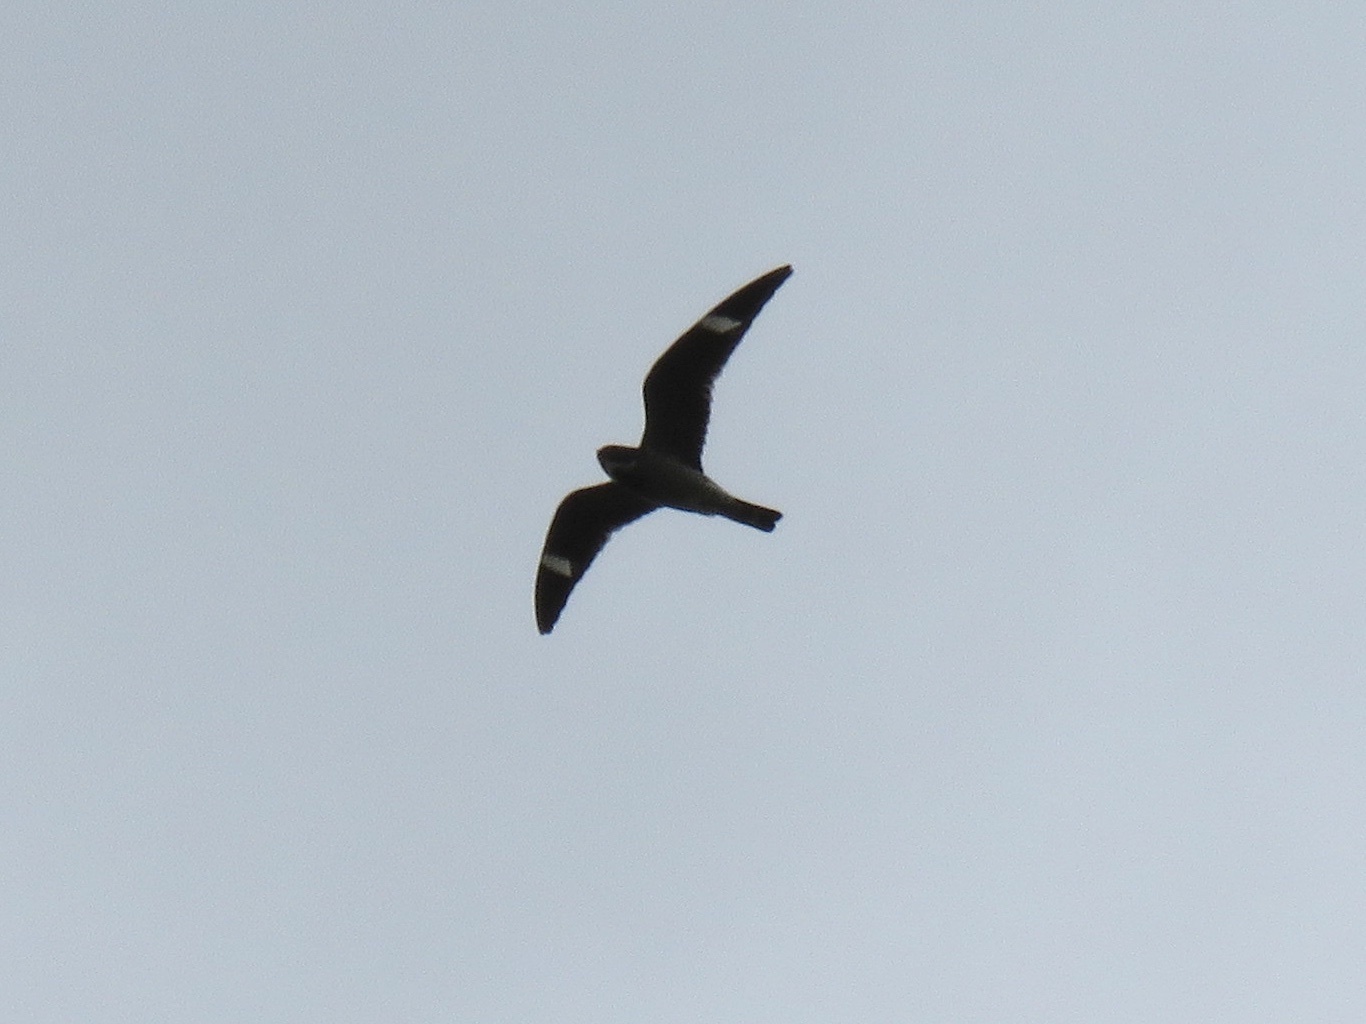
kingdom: Animalia
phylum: Chordata
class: Aves
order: Caprimulgiformes
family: Caprimulgidae
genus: Chordeiles
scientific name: Chordeiles minor
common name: Common nighthawk
